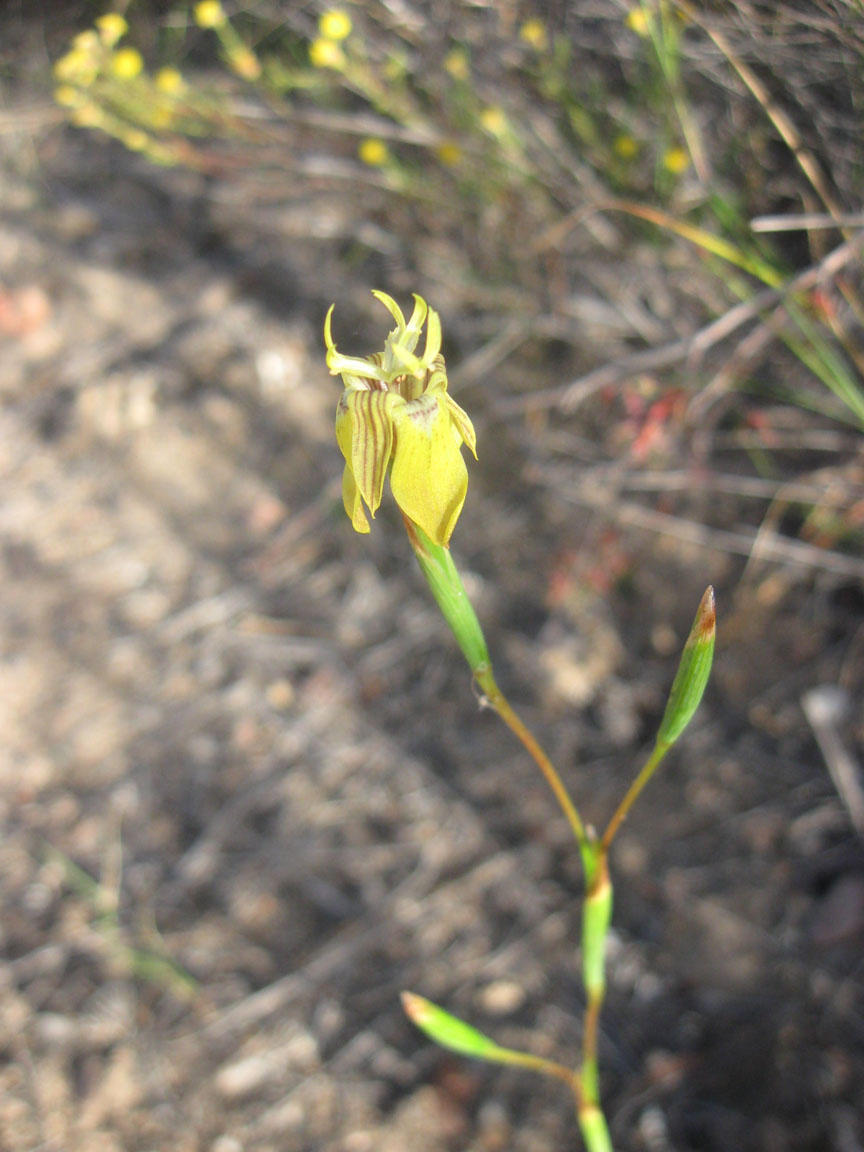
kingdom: Plantae
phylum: Tracheophyta
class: Liliopsida
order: Asparagales
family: Iridaceae
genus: Moraea
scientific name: Moraea inconspicua
